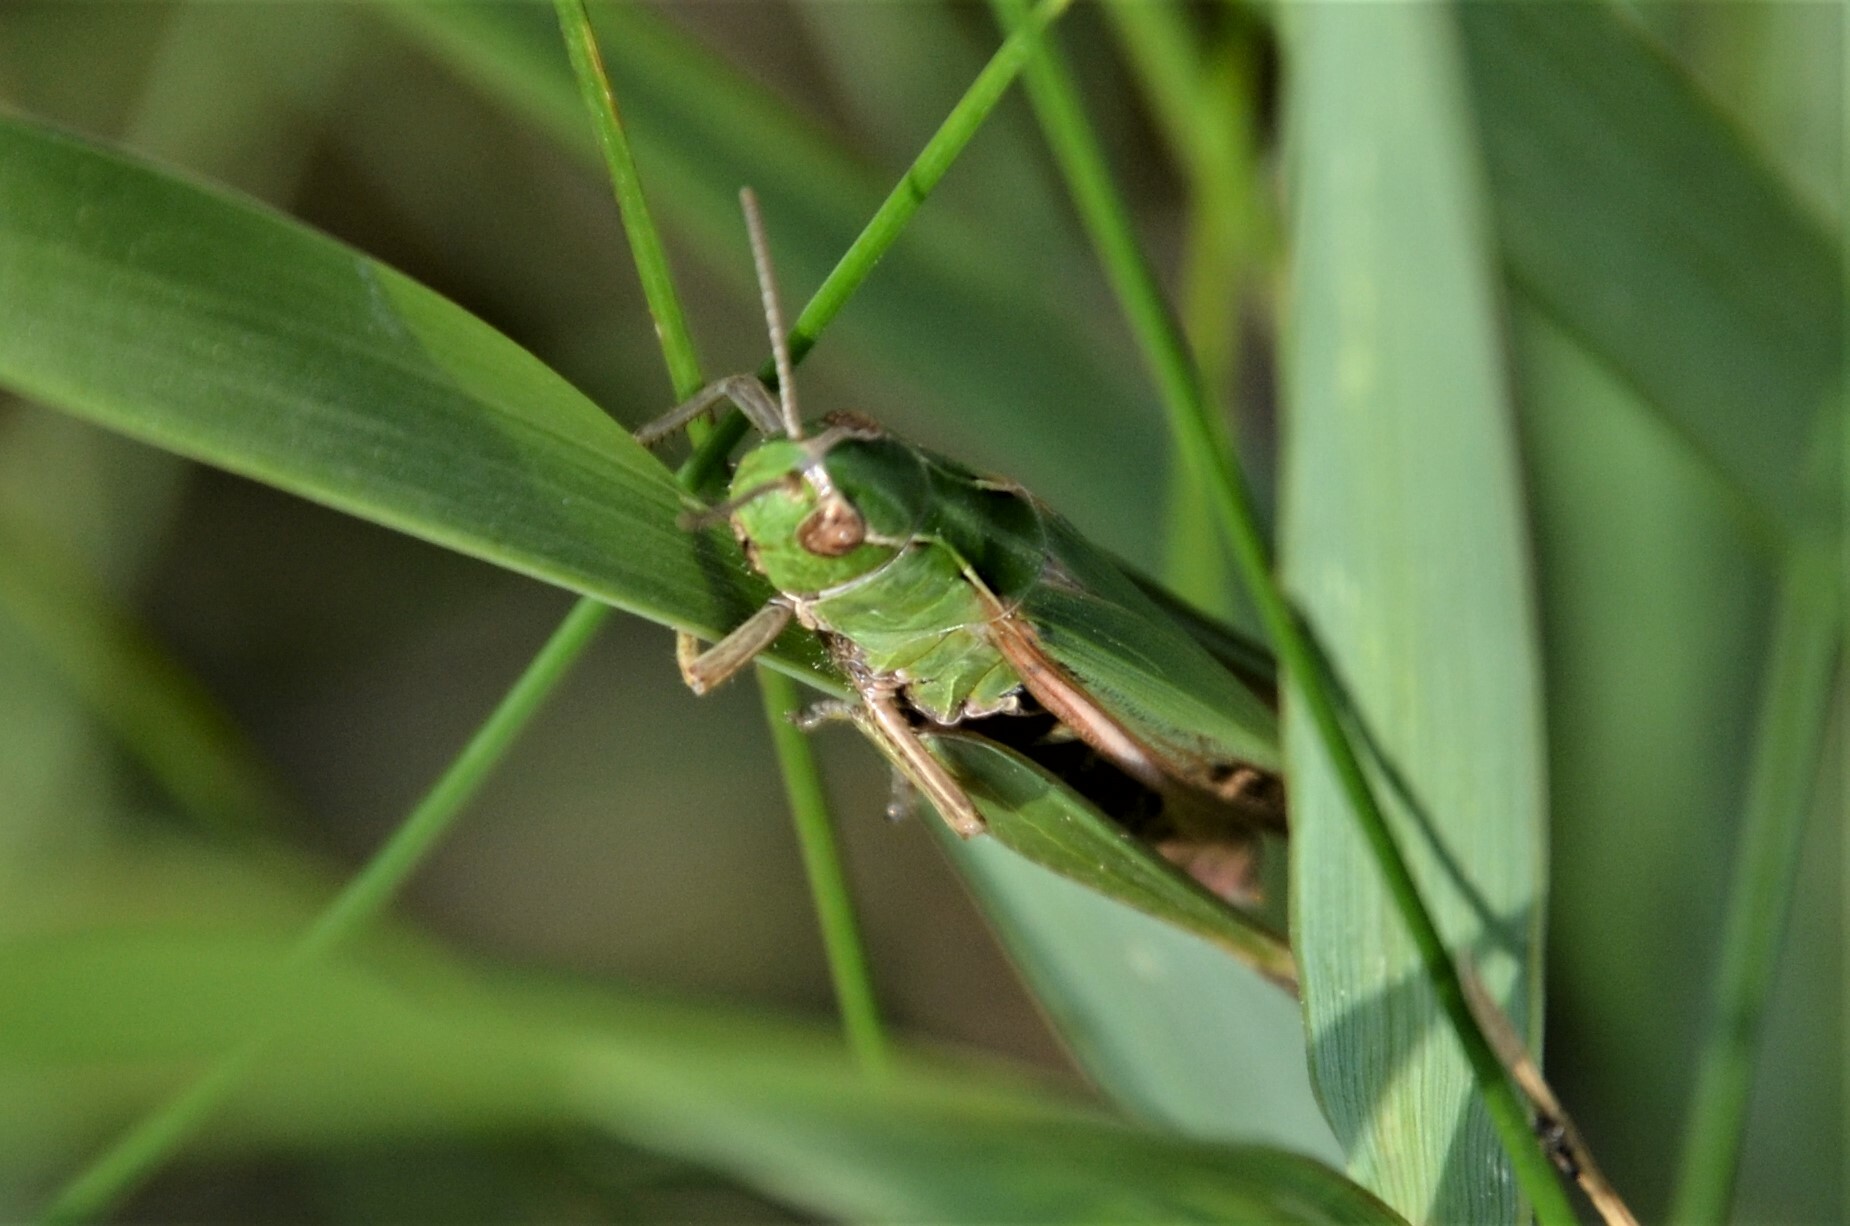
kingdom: Animalia
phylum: Arthropoda
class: Insecta
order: Orthoptera
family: Acrididae
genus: Omocestus
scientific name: Omocestus viridulus
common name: Common green grasshopper
